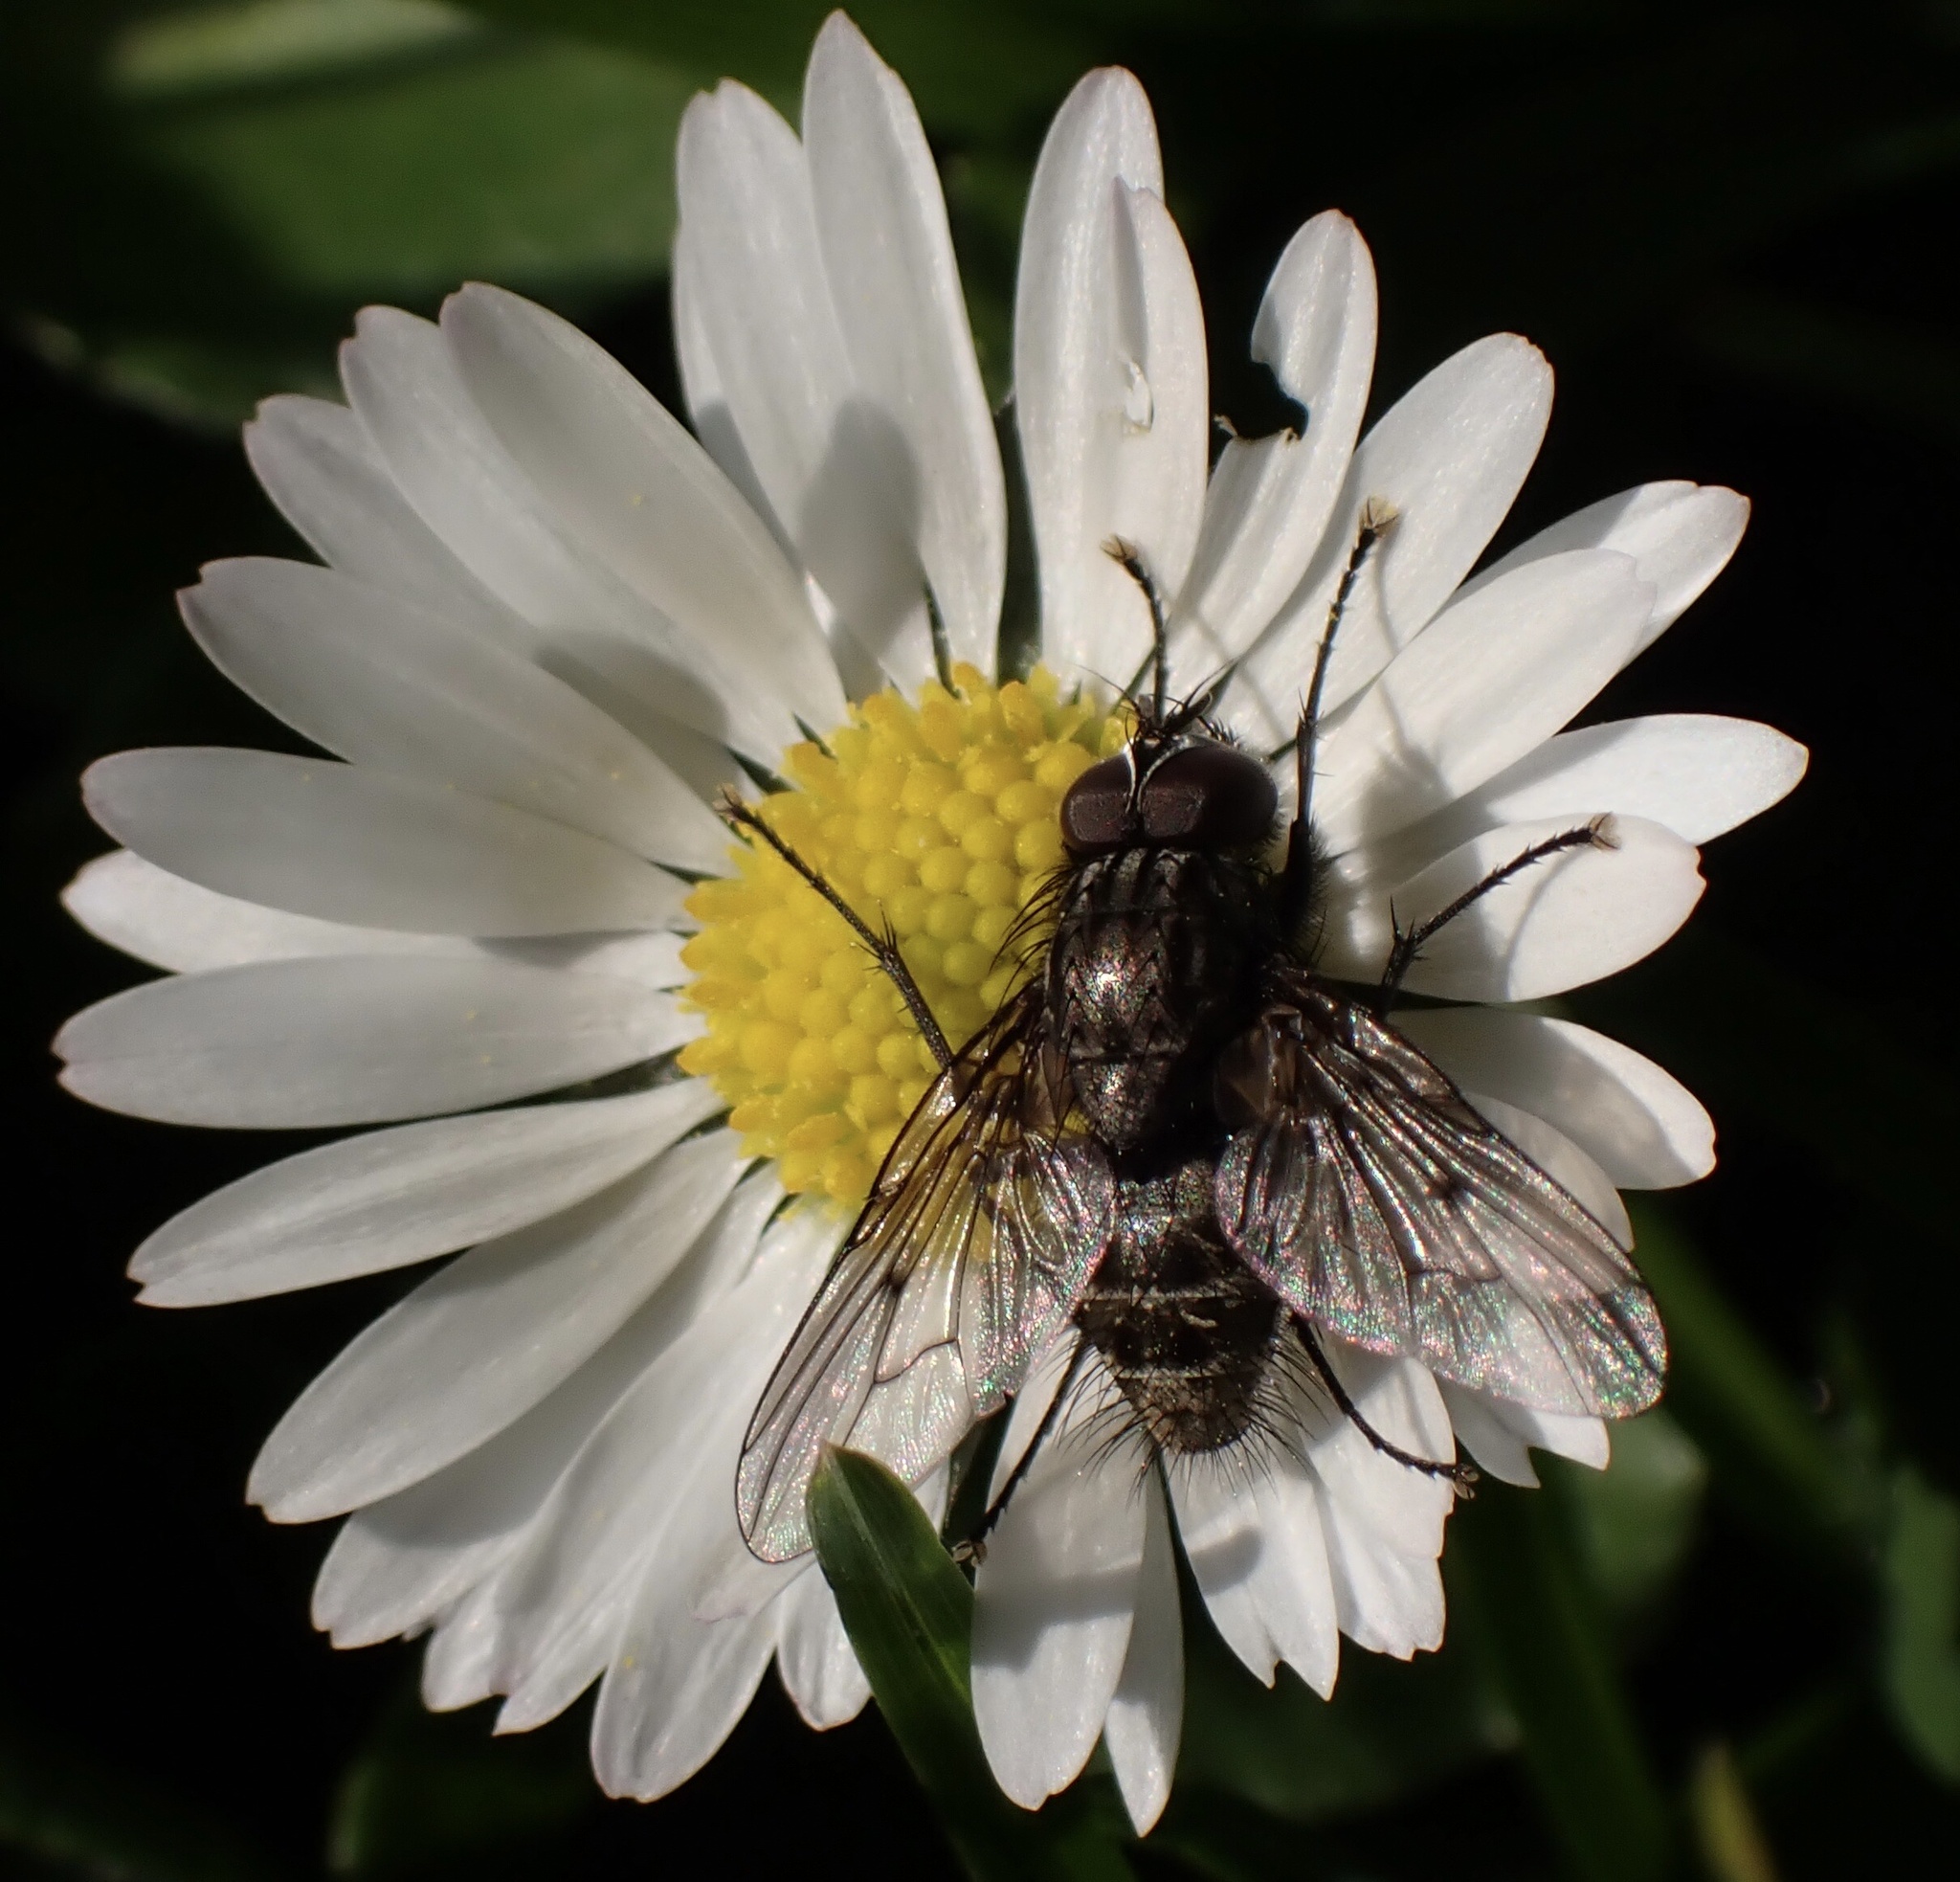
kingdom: Animalia
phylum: Arthropoda
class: Insecta
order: Diptera
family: Muscidae
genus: Helina
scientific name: Helina evecta
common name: Muscid fly
